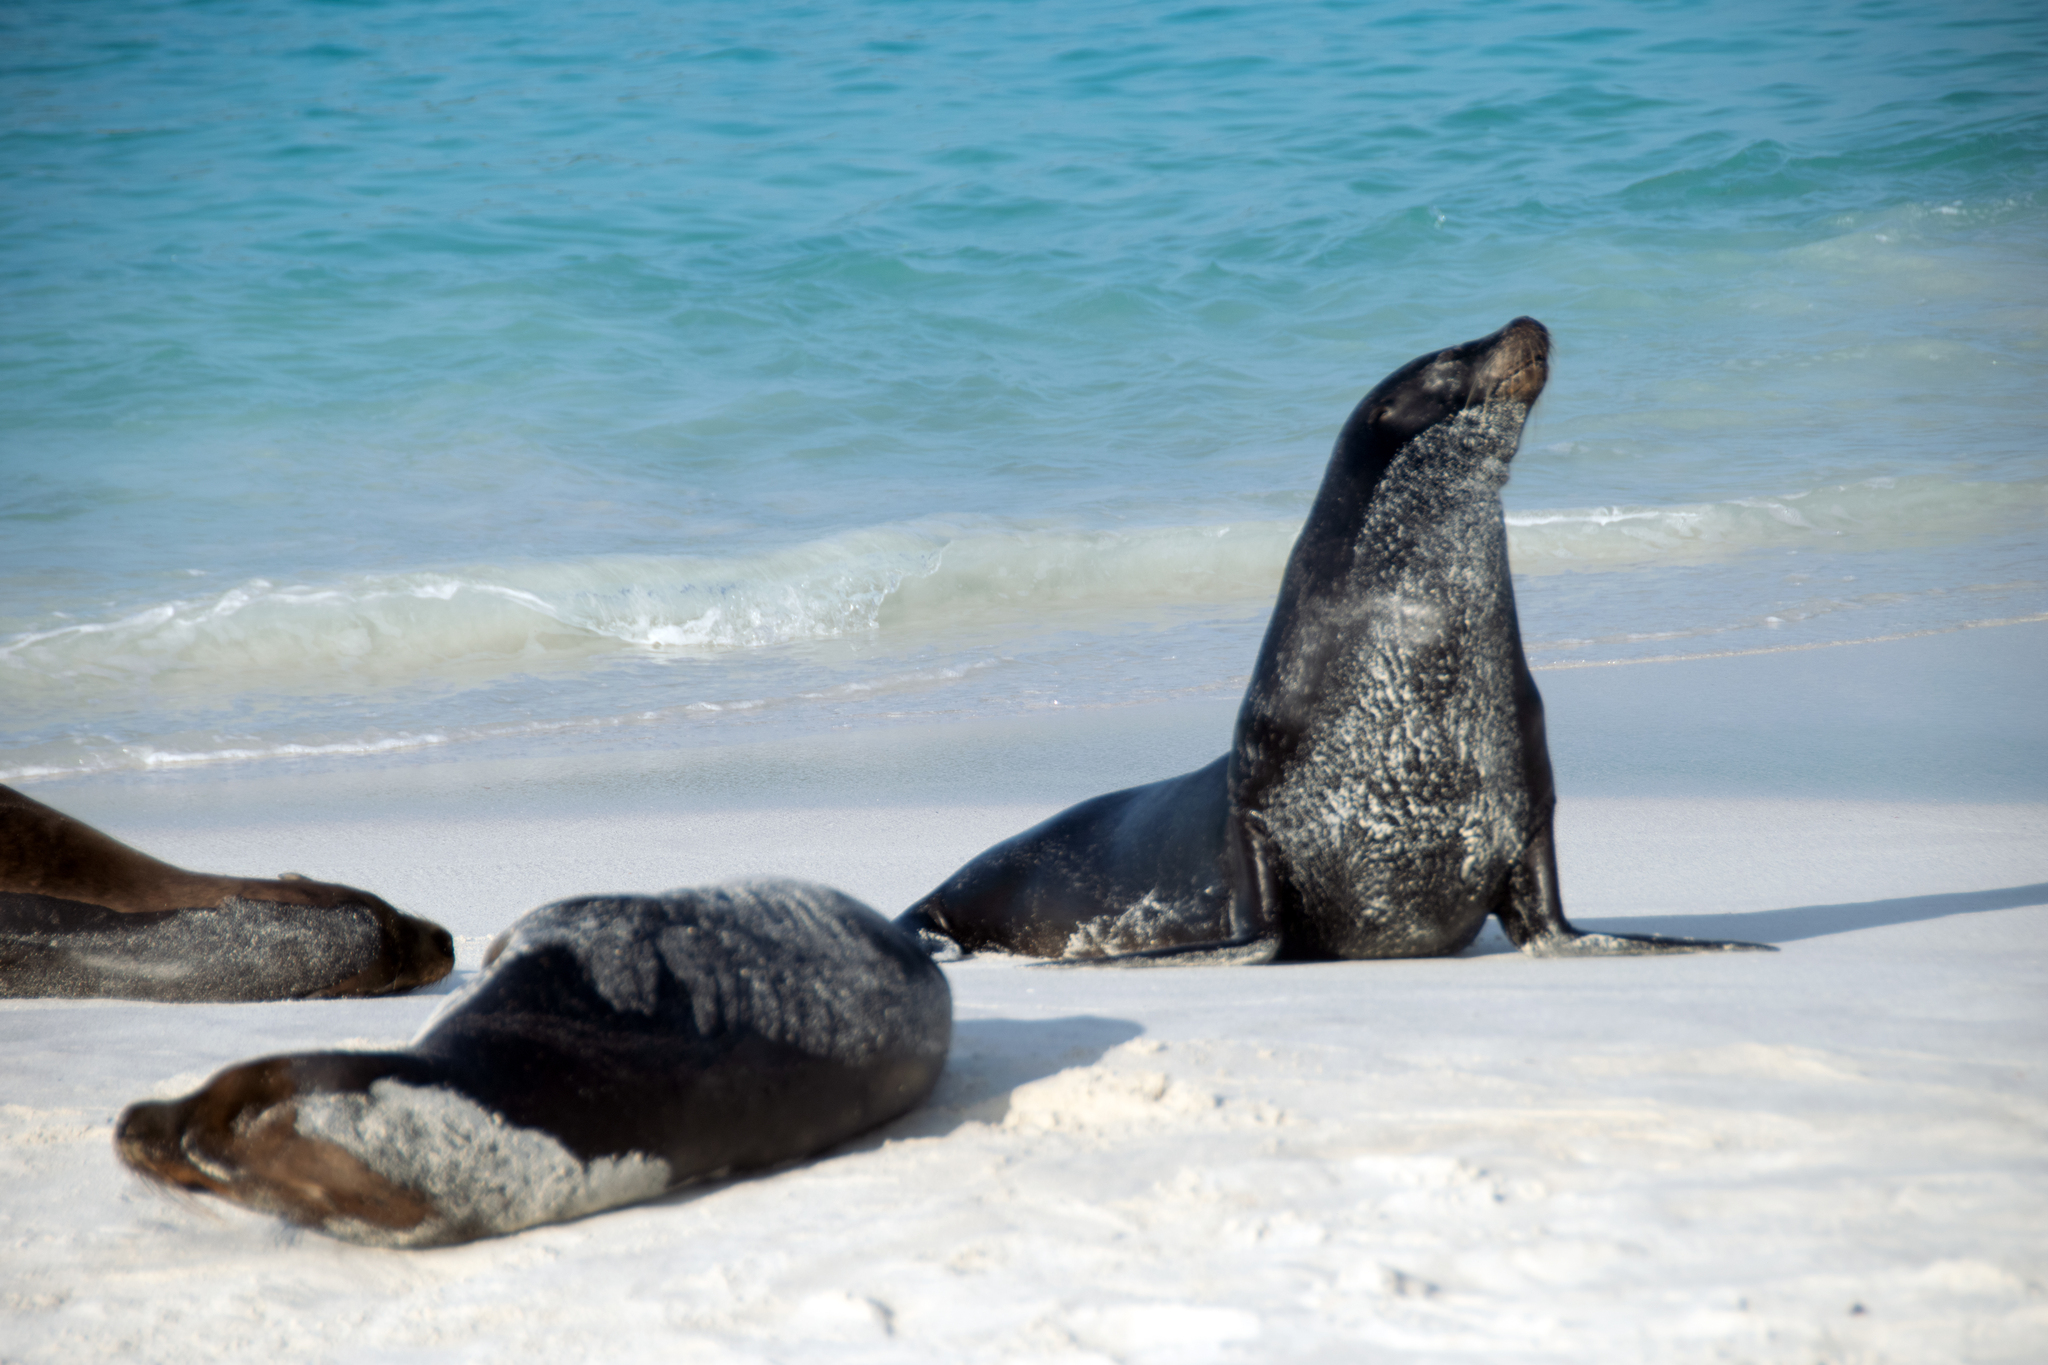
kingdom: Animalia
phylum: Chordata
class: Mammalia
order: Carnivora
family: Otariidae
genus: Zalophus
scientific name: Zalophus wollebaeki
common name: Galapagos sea lion
